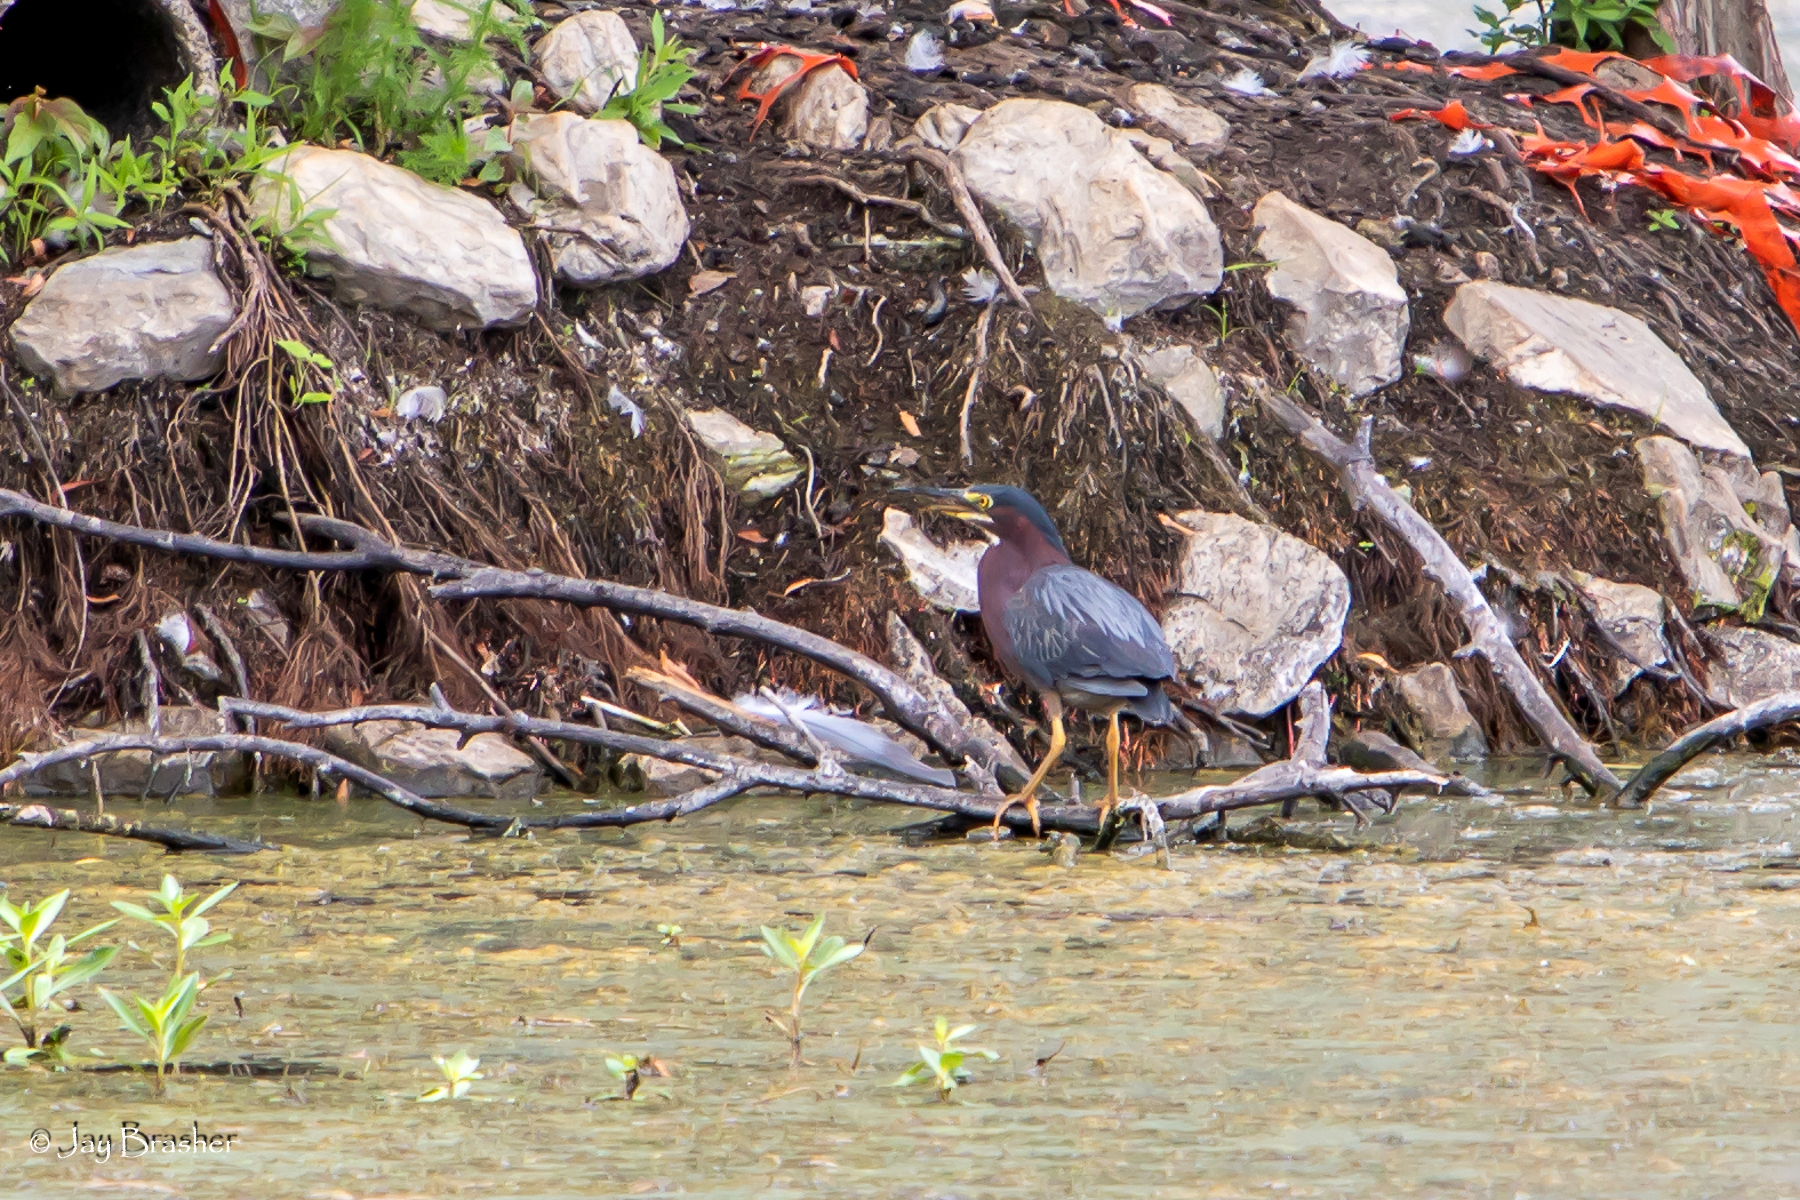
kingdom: Animalia
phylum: Chordata
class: Aves
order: Pelecaniformes
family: Ardeidae
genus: Butorides
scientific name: Butorides virescens
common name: Green heron
